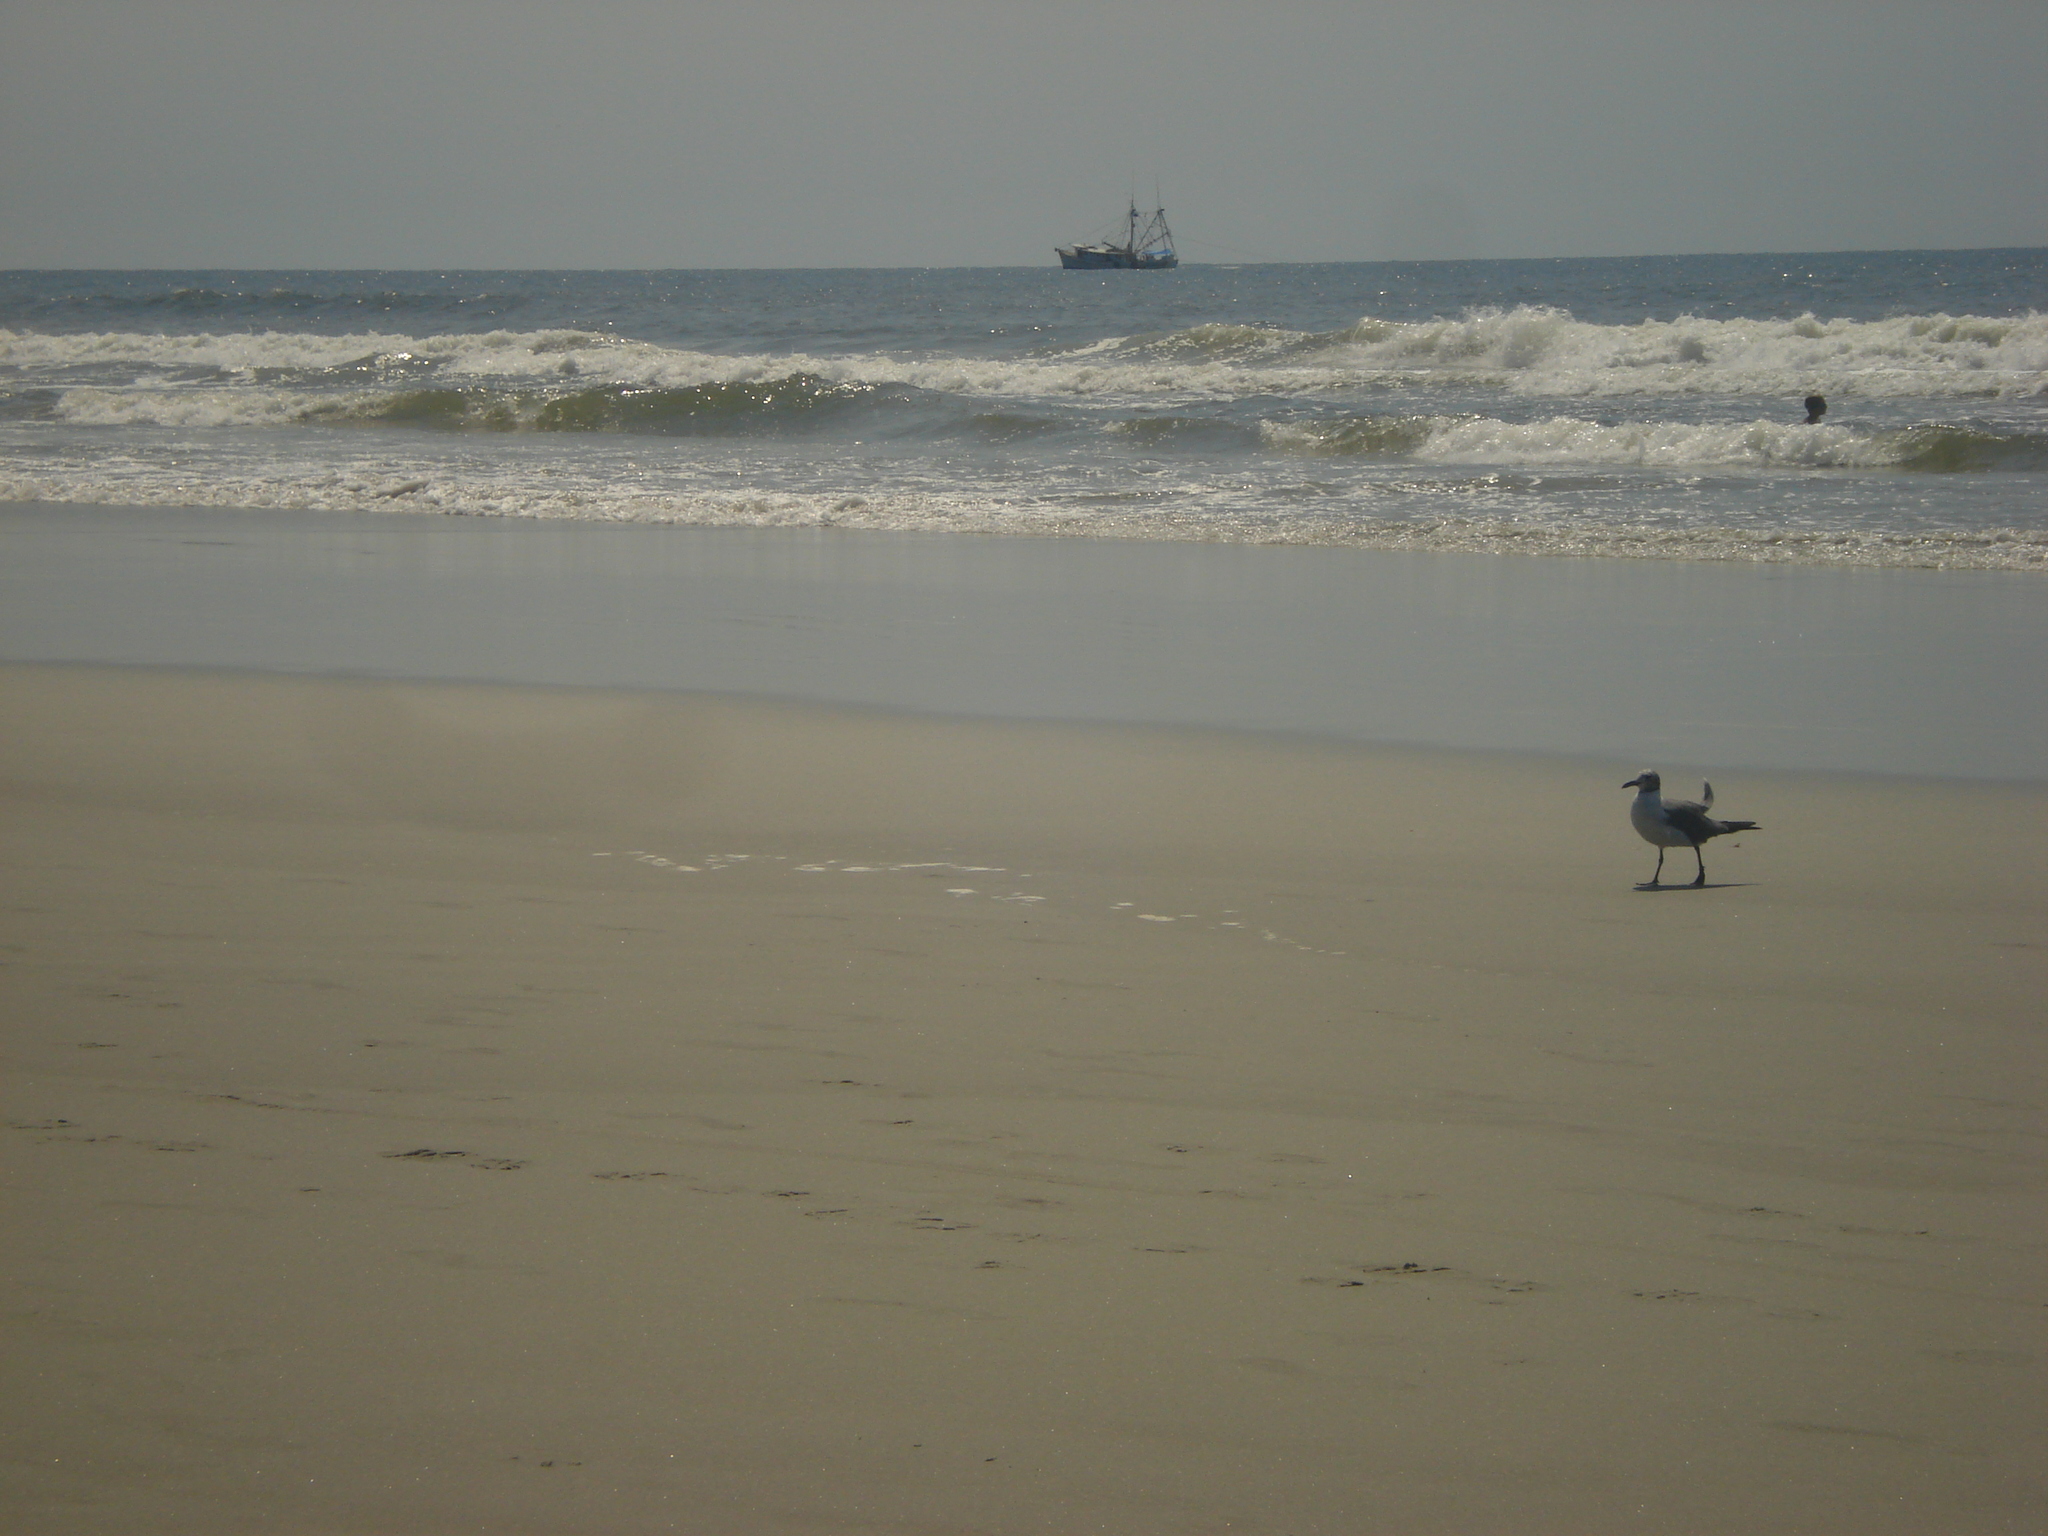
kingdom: Animalia
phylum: Chordata
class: Aves
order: Charadriiformes
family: Laridae
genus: Leucophaeus
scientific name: Leucophaeus atricilla
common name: Laughing gull
